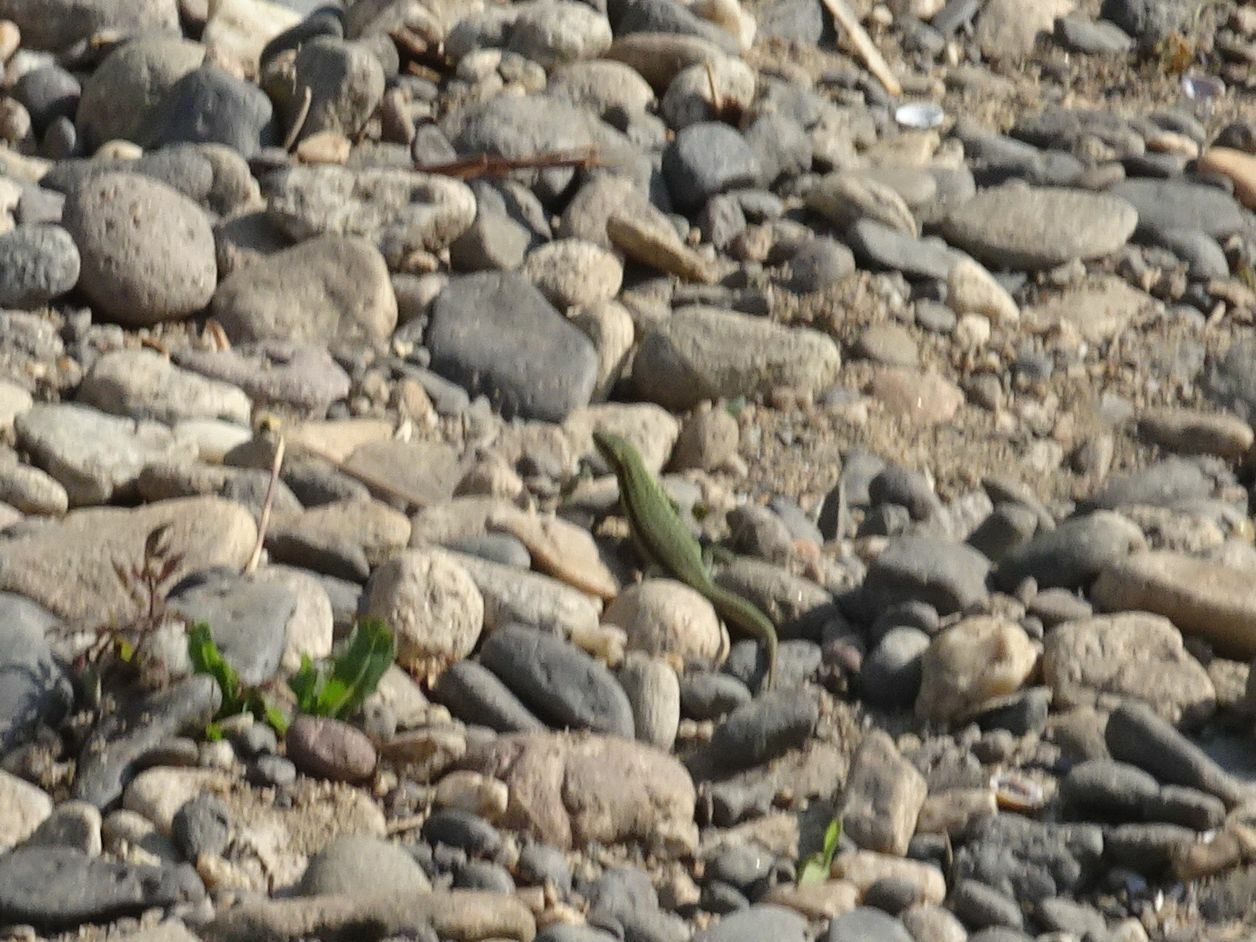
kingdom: Animalia
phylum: Chordata
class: Squamata
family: Lacertidae
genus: Podarcis
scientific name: Podarcis muralis
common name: Common wall lizard
